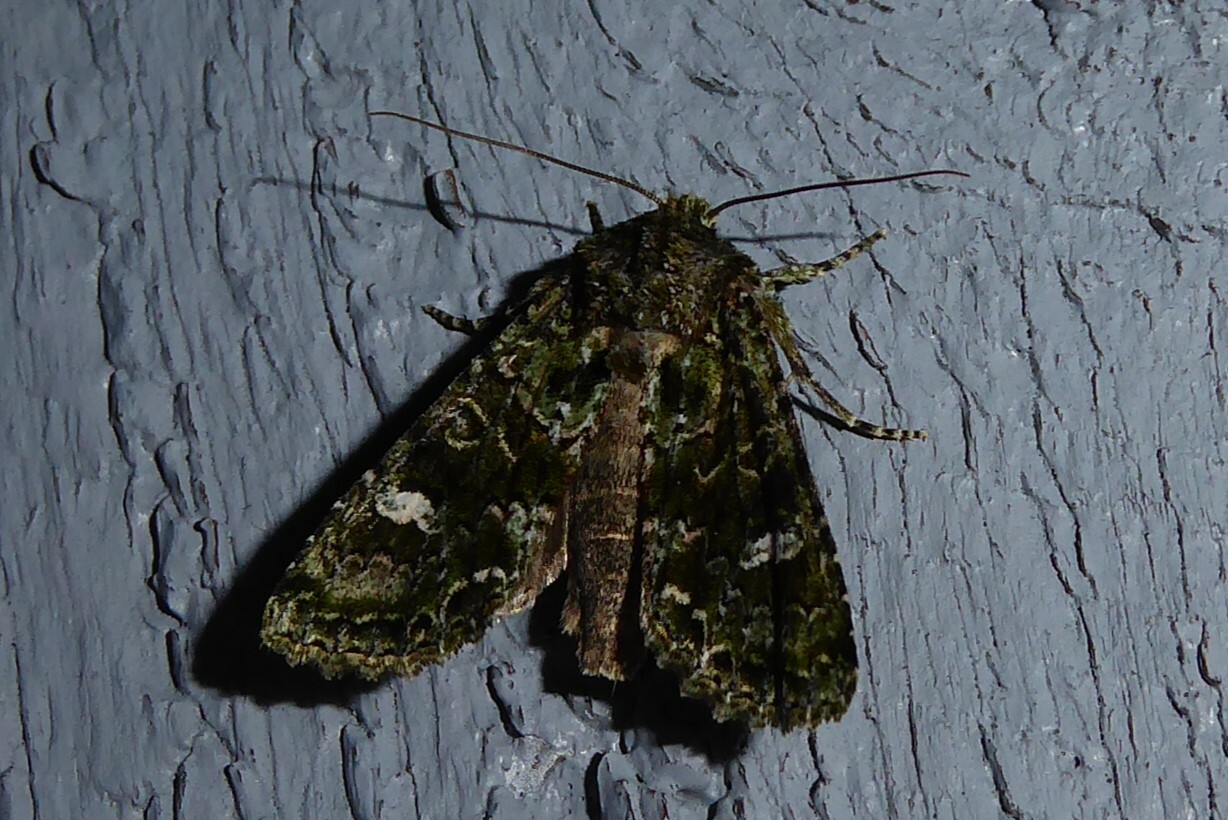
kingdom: Animalia
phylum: Arthropoda
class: Insecta
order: Lepidoptera
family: Noctuidae
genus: Ichneutica
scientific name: Ichneutica
